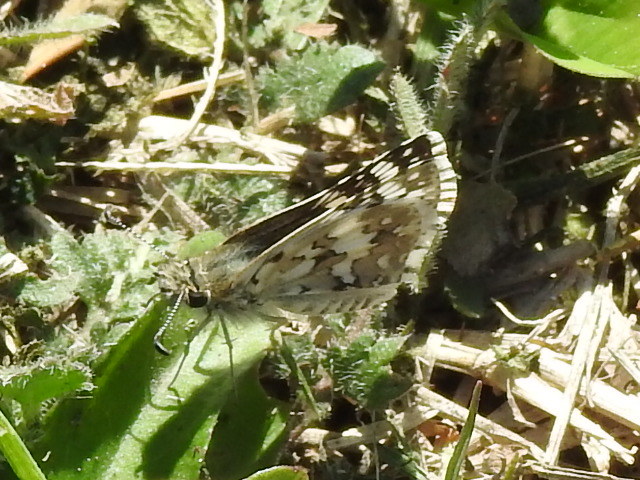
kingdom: Animalia
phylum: Arthropoda
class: Insecta
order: Lepidoptera
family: Hesperiidae
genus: Burnsius
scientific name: Burnsius
